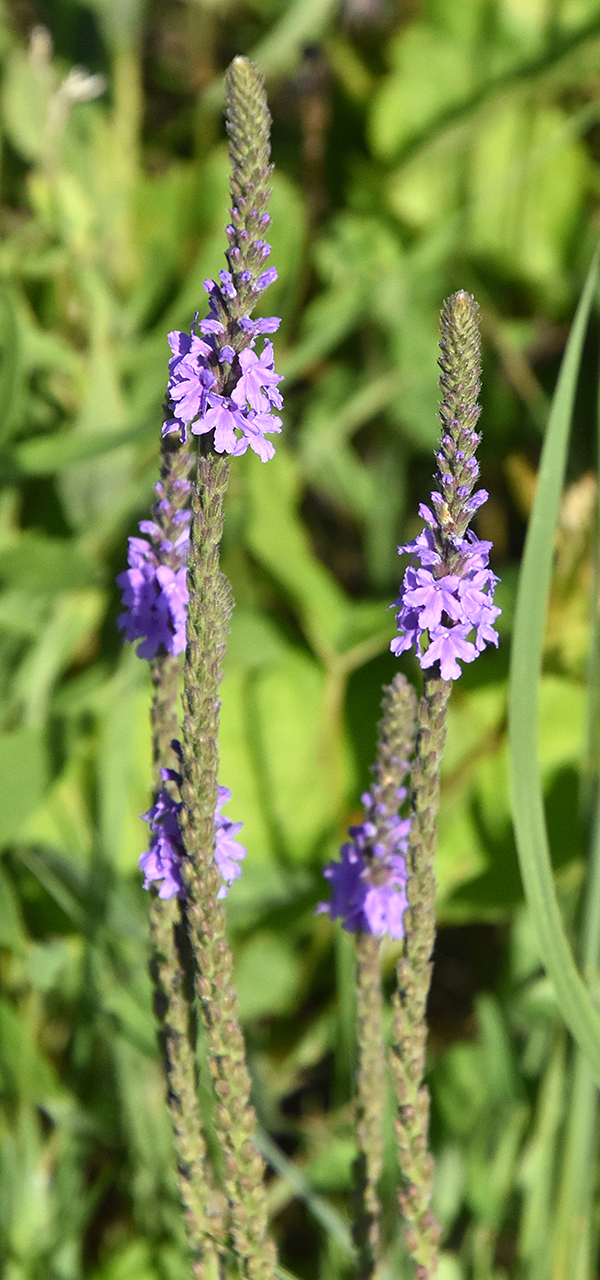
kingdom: Plantae
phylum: Tracheophyta
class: Magnoliopsida
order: Lamiales
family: Verbenaceae
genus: Verbena
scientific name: Verbena stricta
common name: Hoary vervain
